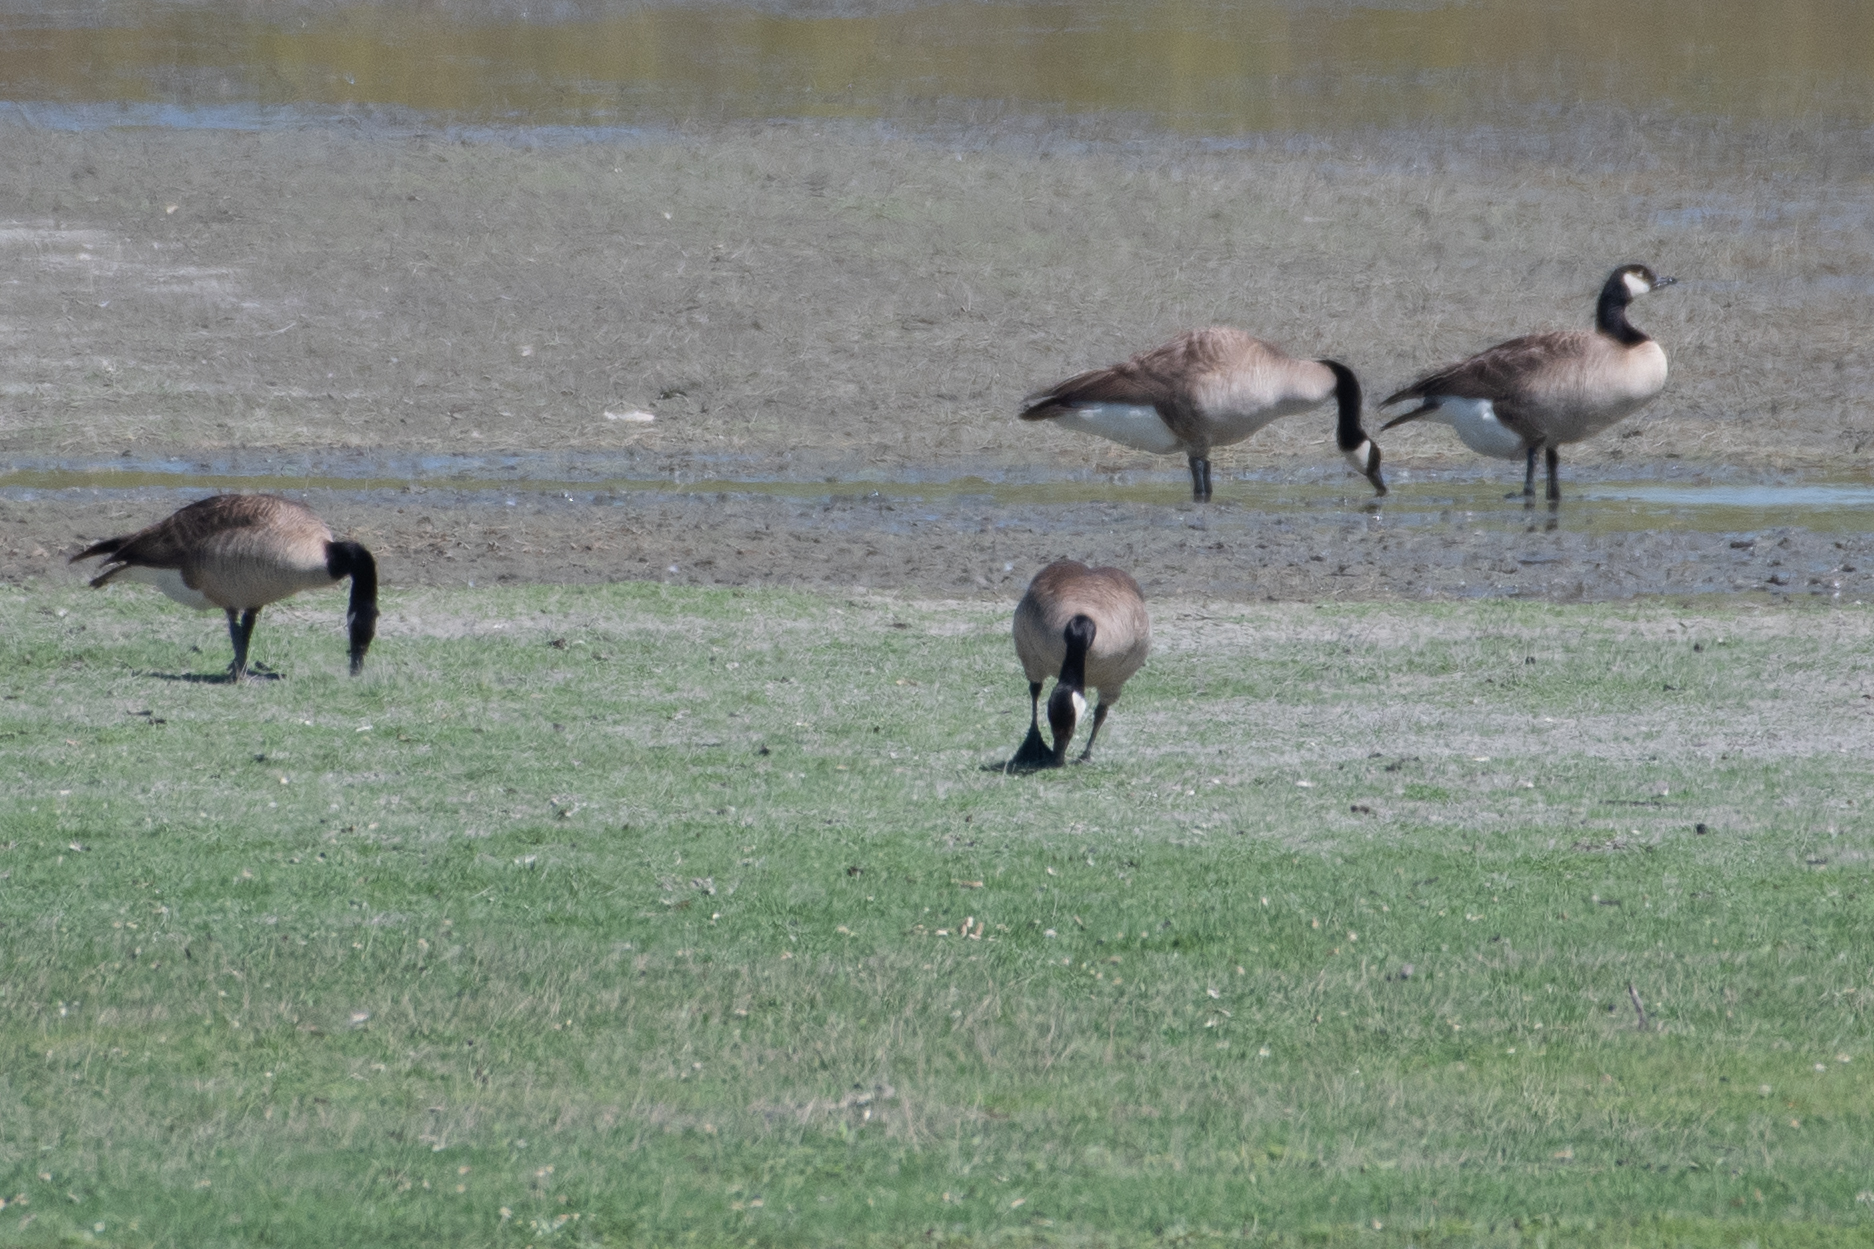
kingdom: Animalia
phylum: Chordata
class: Aves
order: Anseriformes
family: Anatidae
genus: Branta
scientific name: Branta canadensis
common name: Canada goose
